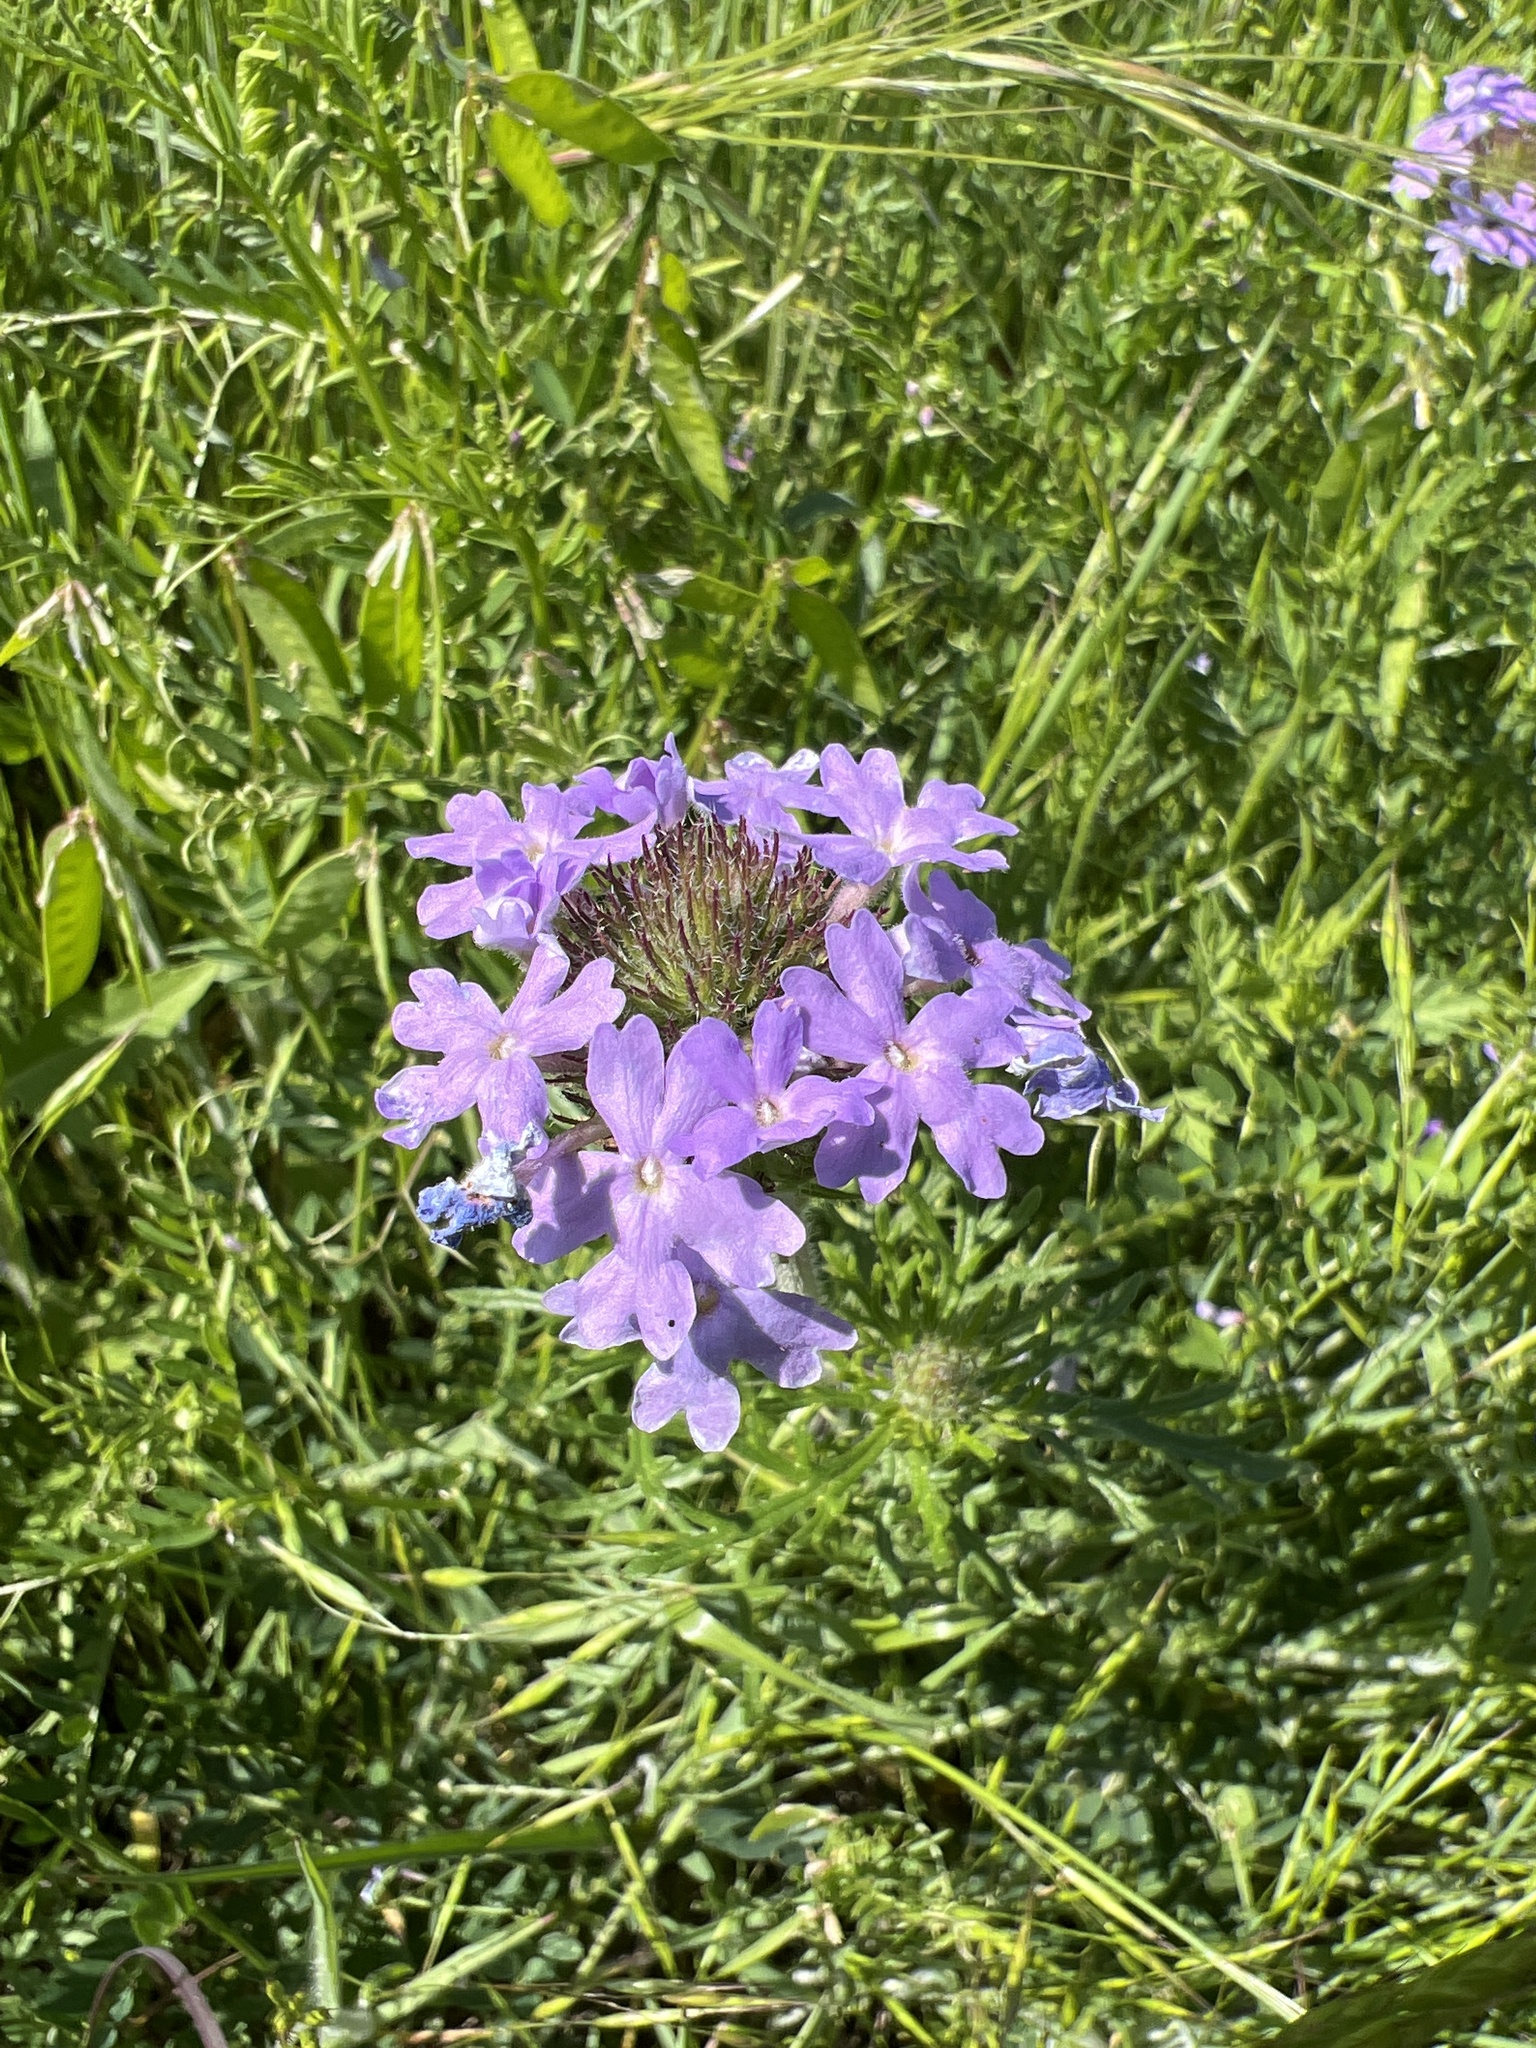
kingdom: Plantae
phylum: Tracheophyta
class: Magnoliopsida
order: Lamiales
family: Verbenaceae
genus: Verbena
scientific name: Verbena bipinnatifida
